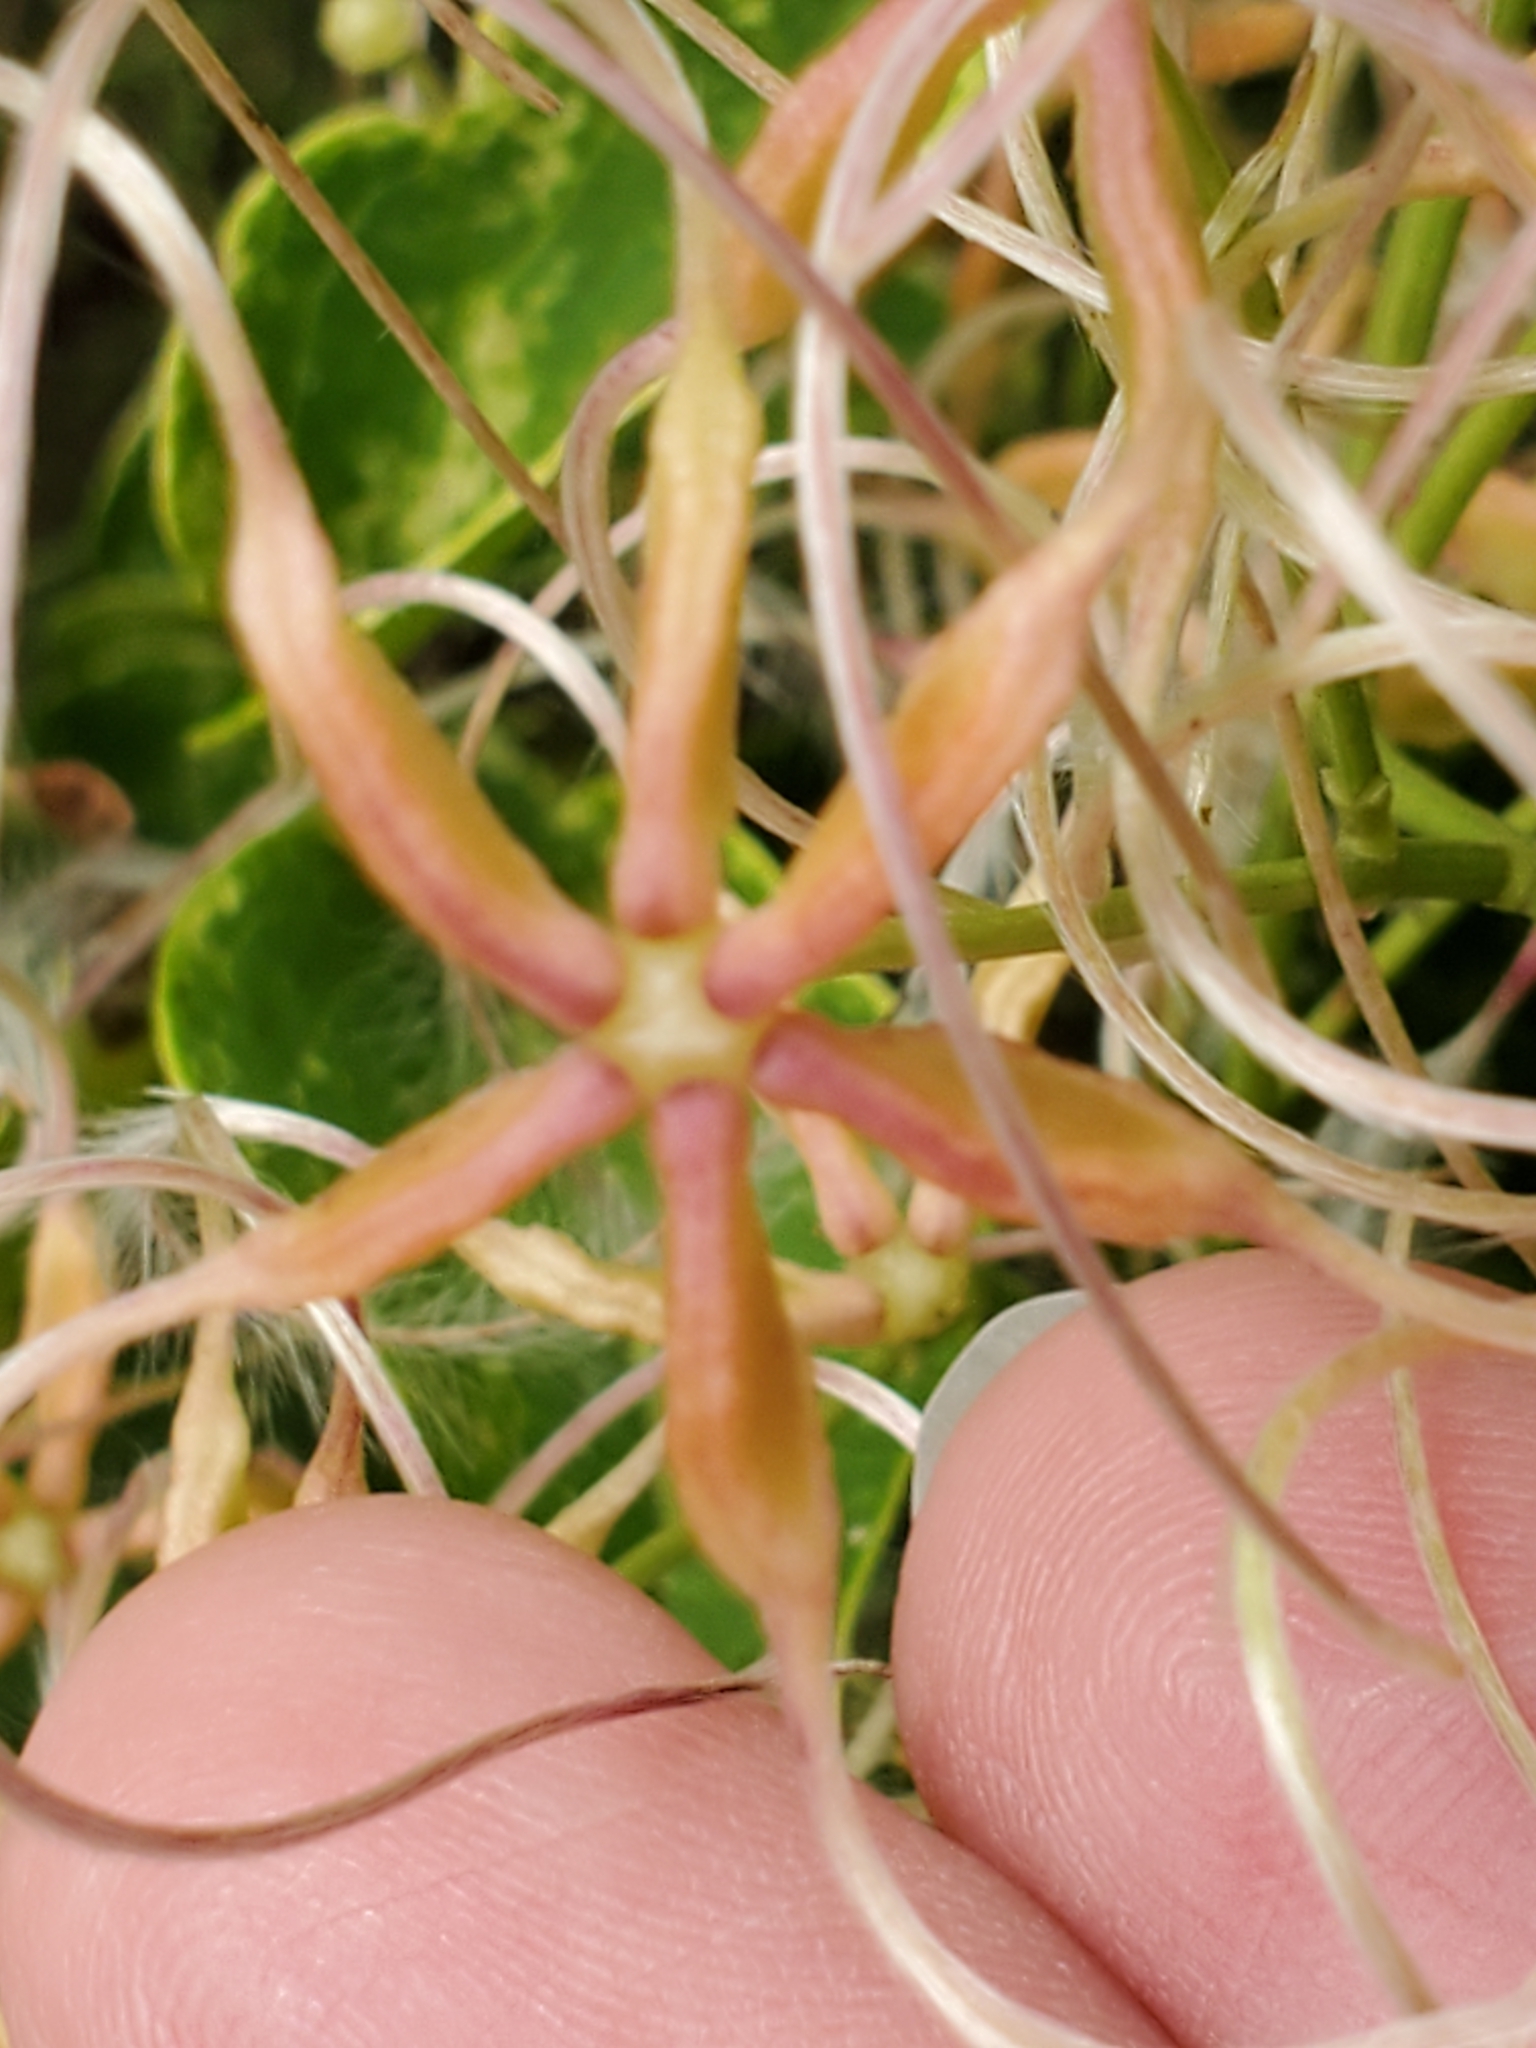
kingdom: Plantae
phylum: Tracheophyta
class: Magnoliopsida
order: Ranunculales
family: Ranunculaceae
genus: Clematis
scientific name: Clematis terniflora
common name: Sweet autumn clematis
